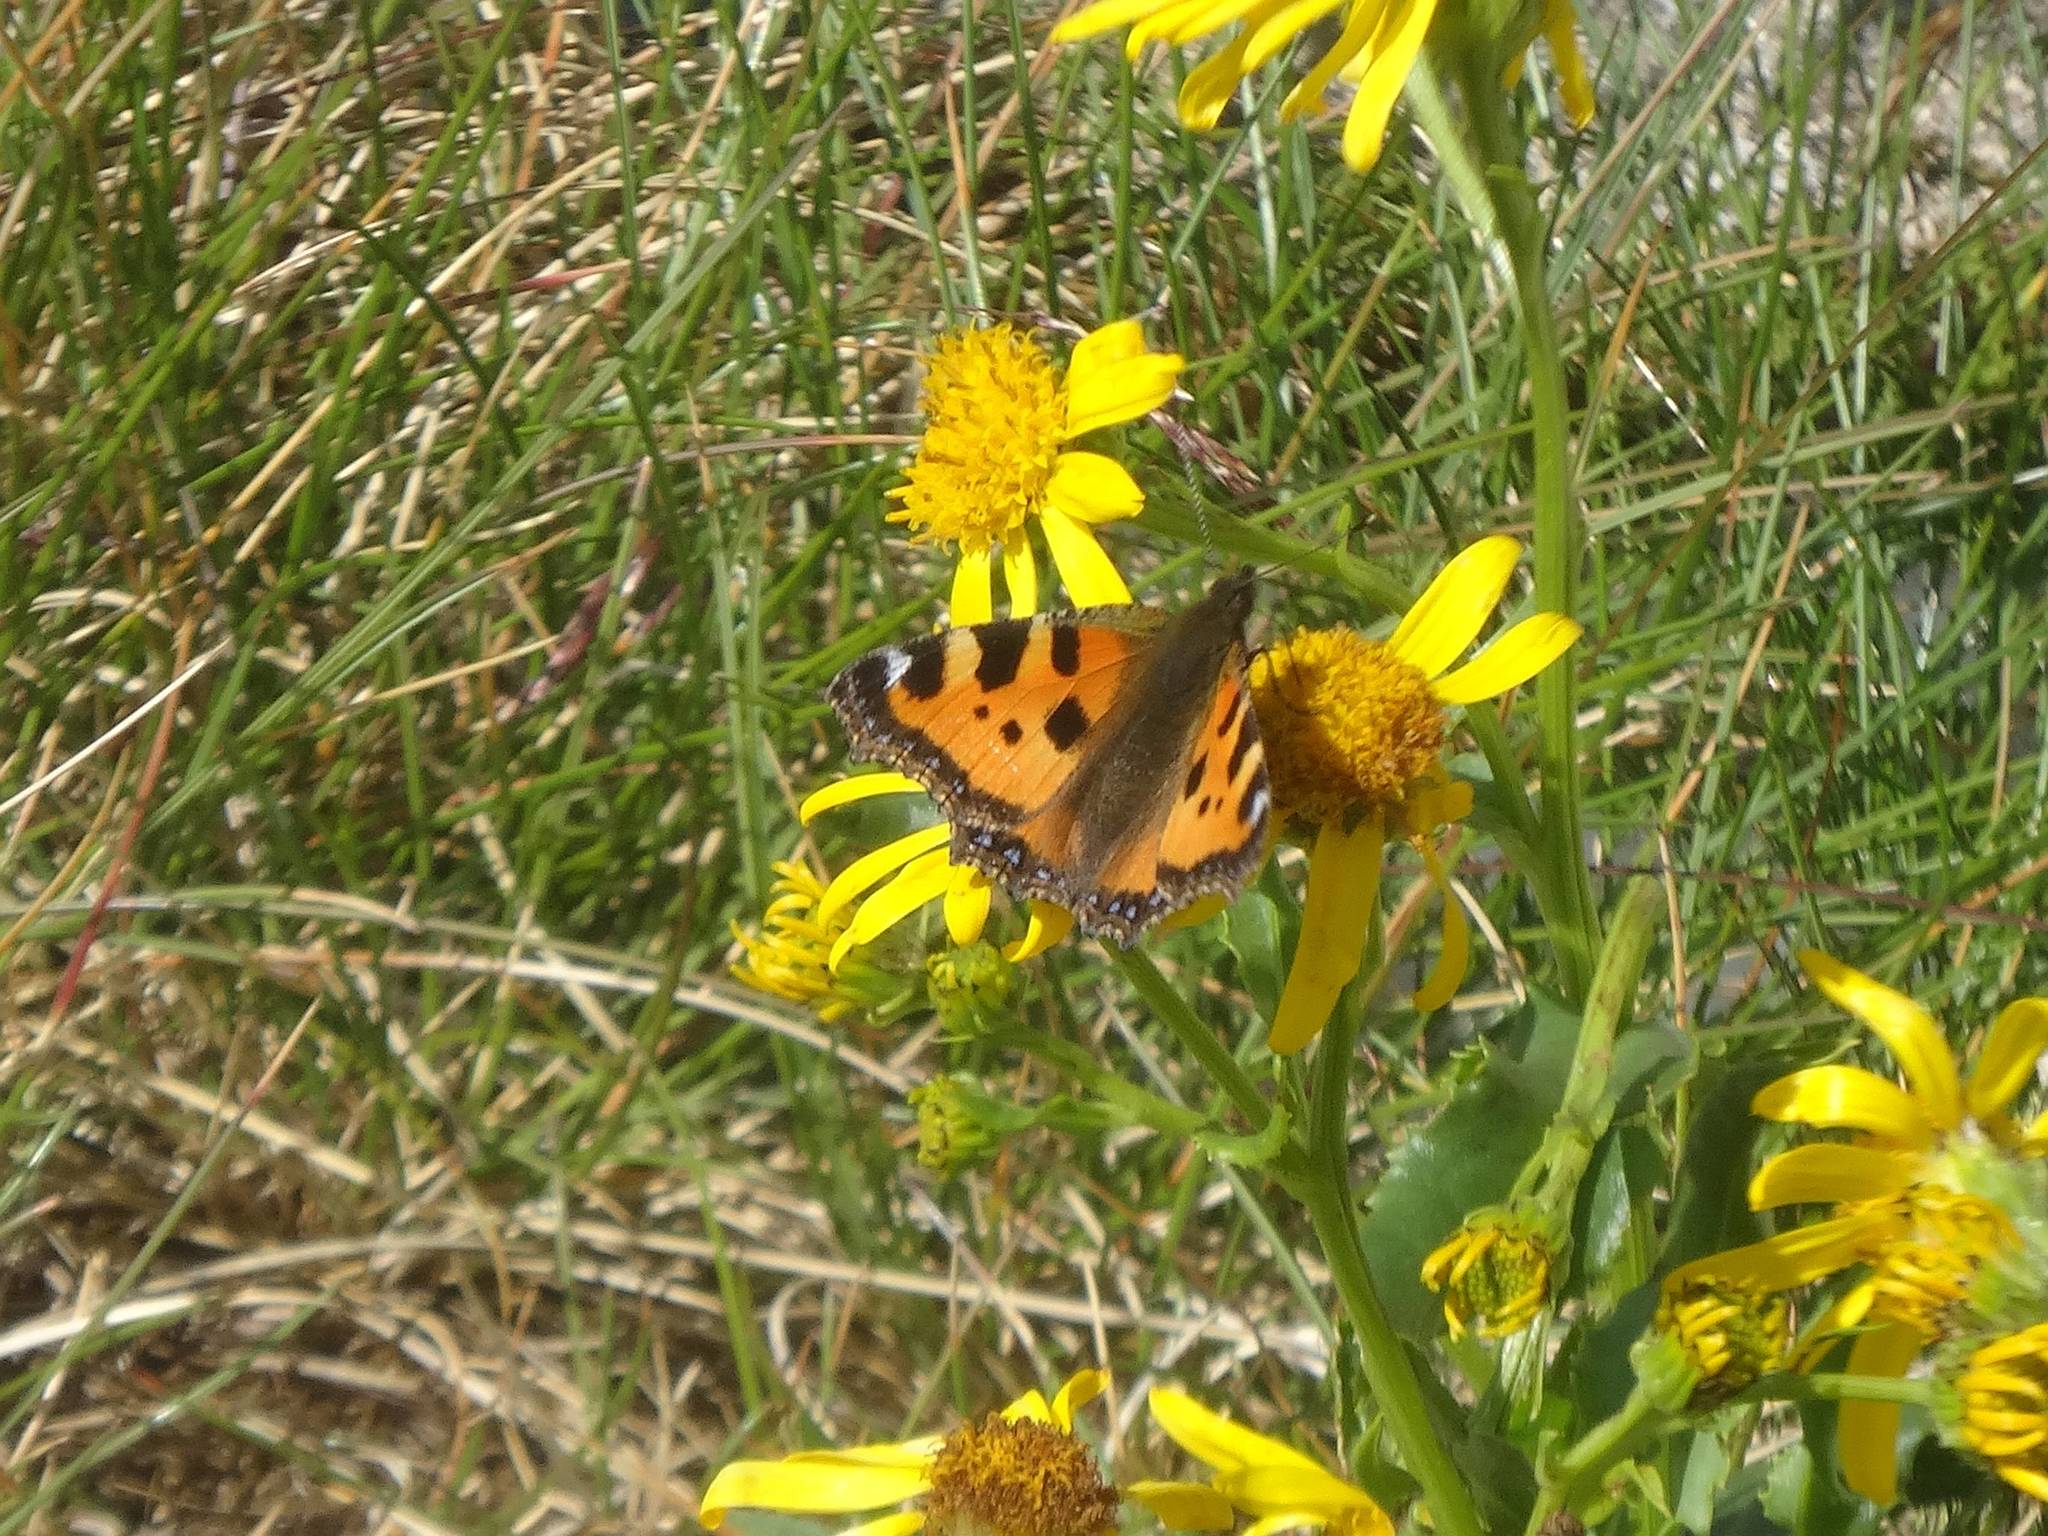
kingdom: Animalia
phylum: Arthropoda
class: Insecta
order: Lepidoptera
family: Nymphalidae
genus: Aglais
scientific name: Aglais urticae
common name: Small tortoiseshell
